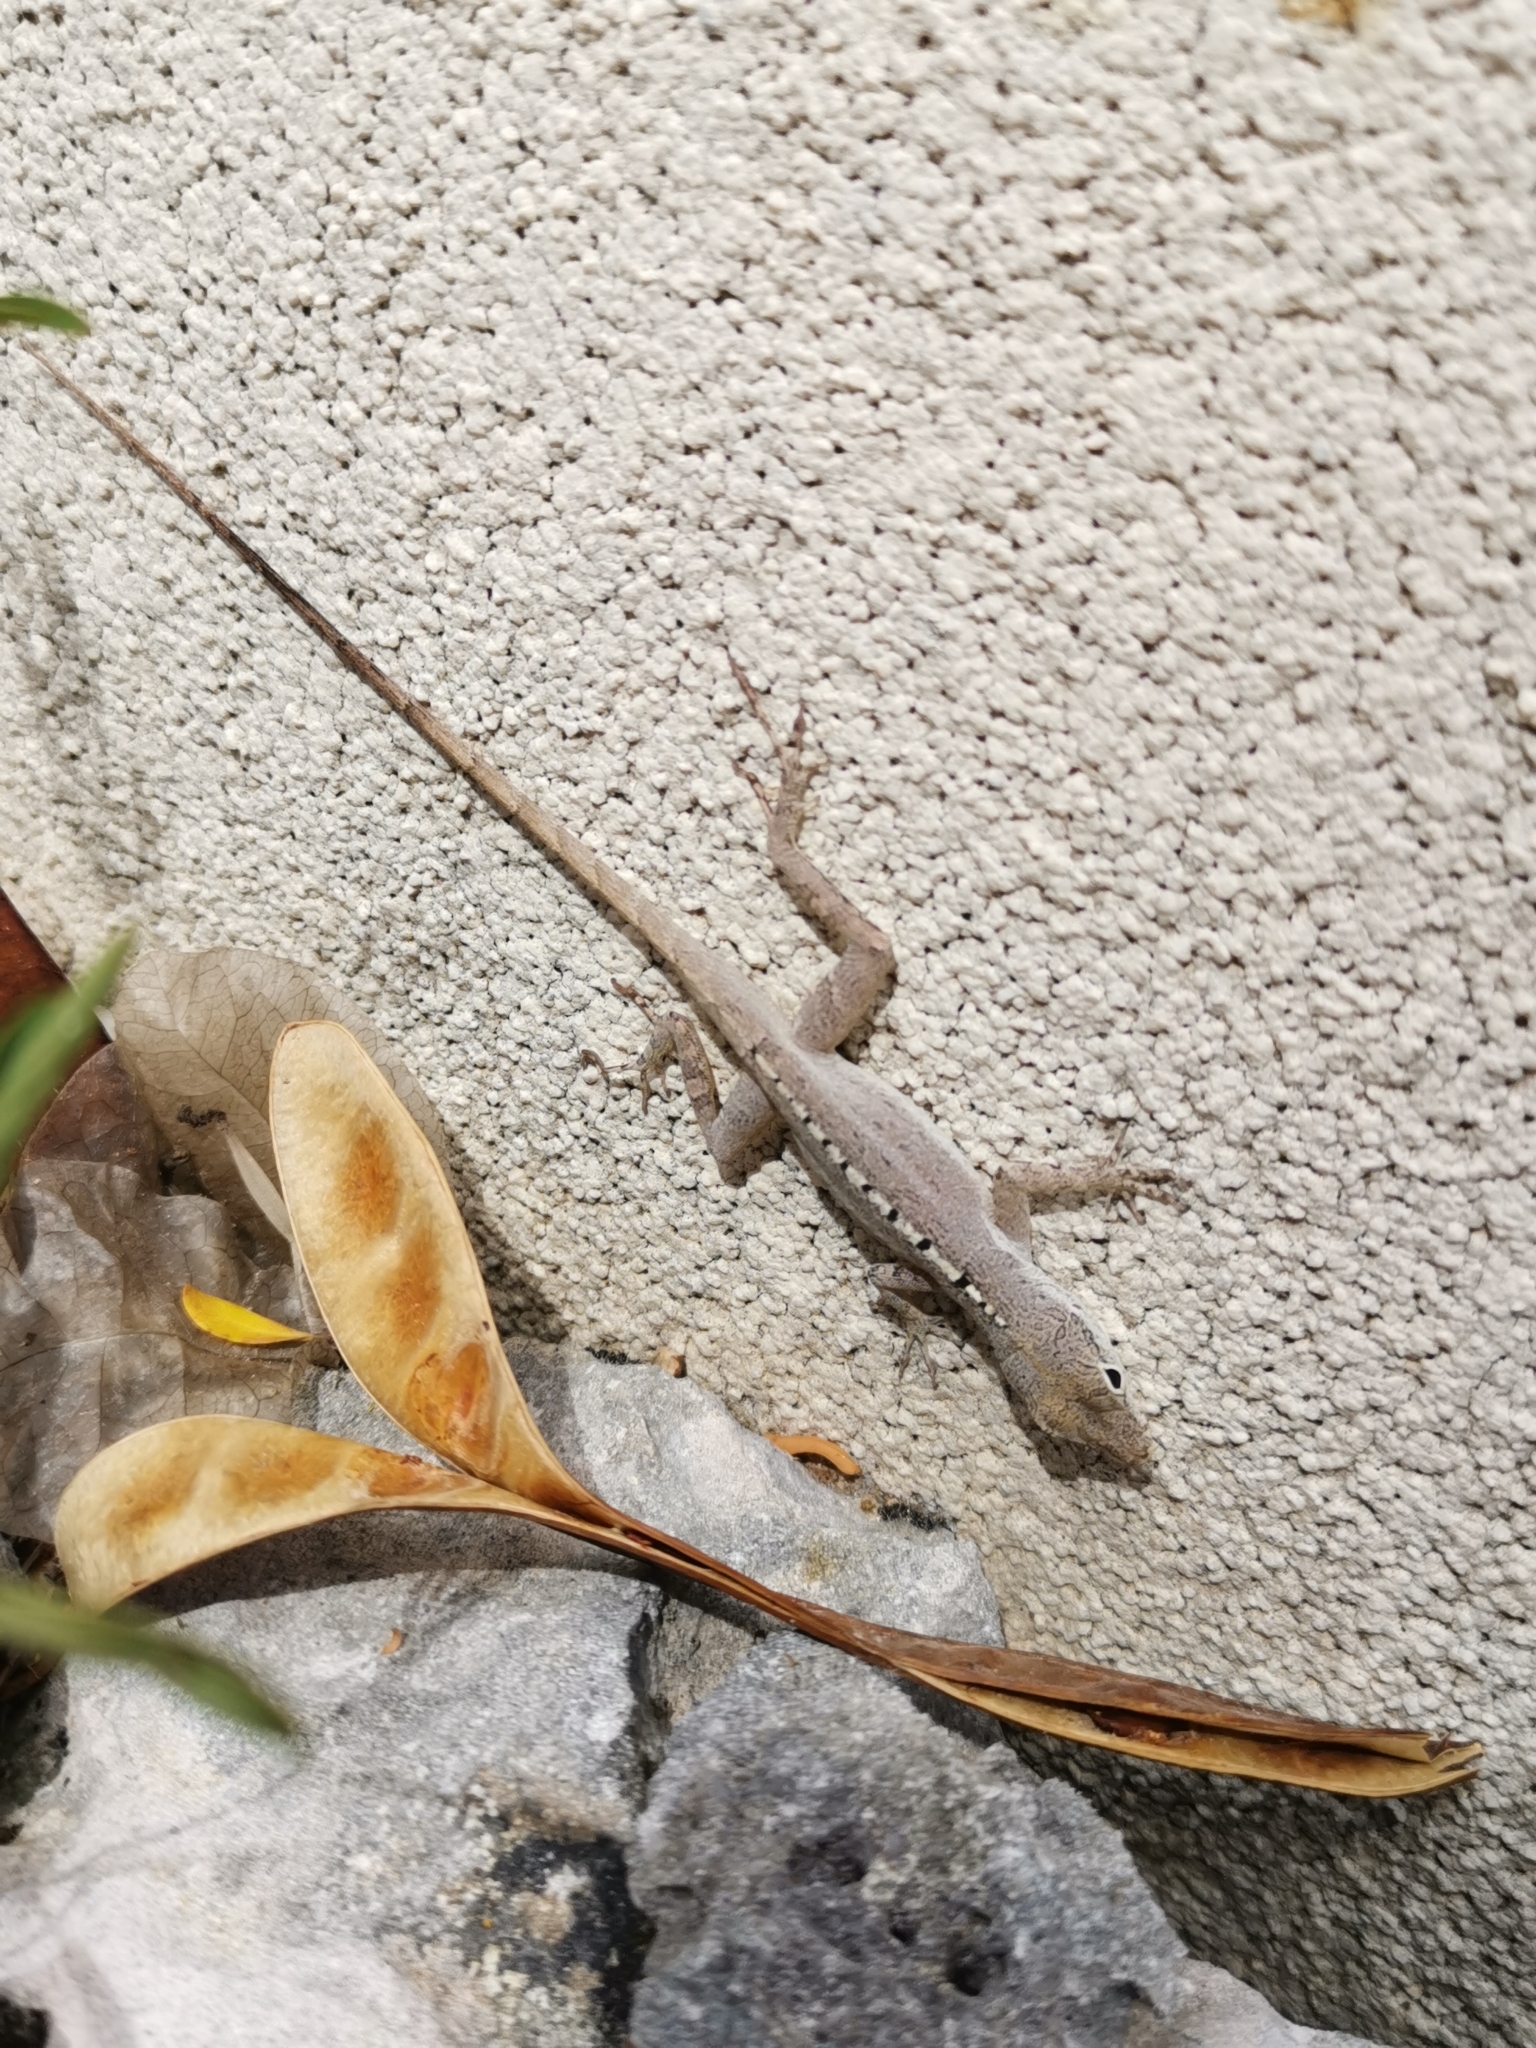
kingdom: Animalia
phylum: Chordata
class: Squamata
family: Dactyloidae
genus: Anolis
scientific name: Anolis scriptus
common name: Silver key anole
